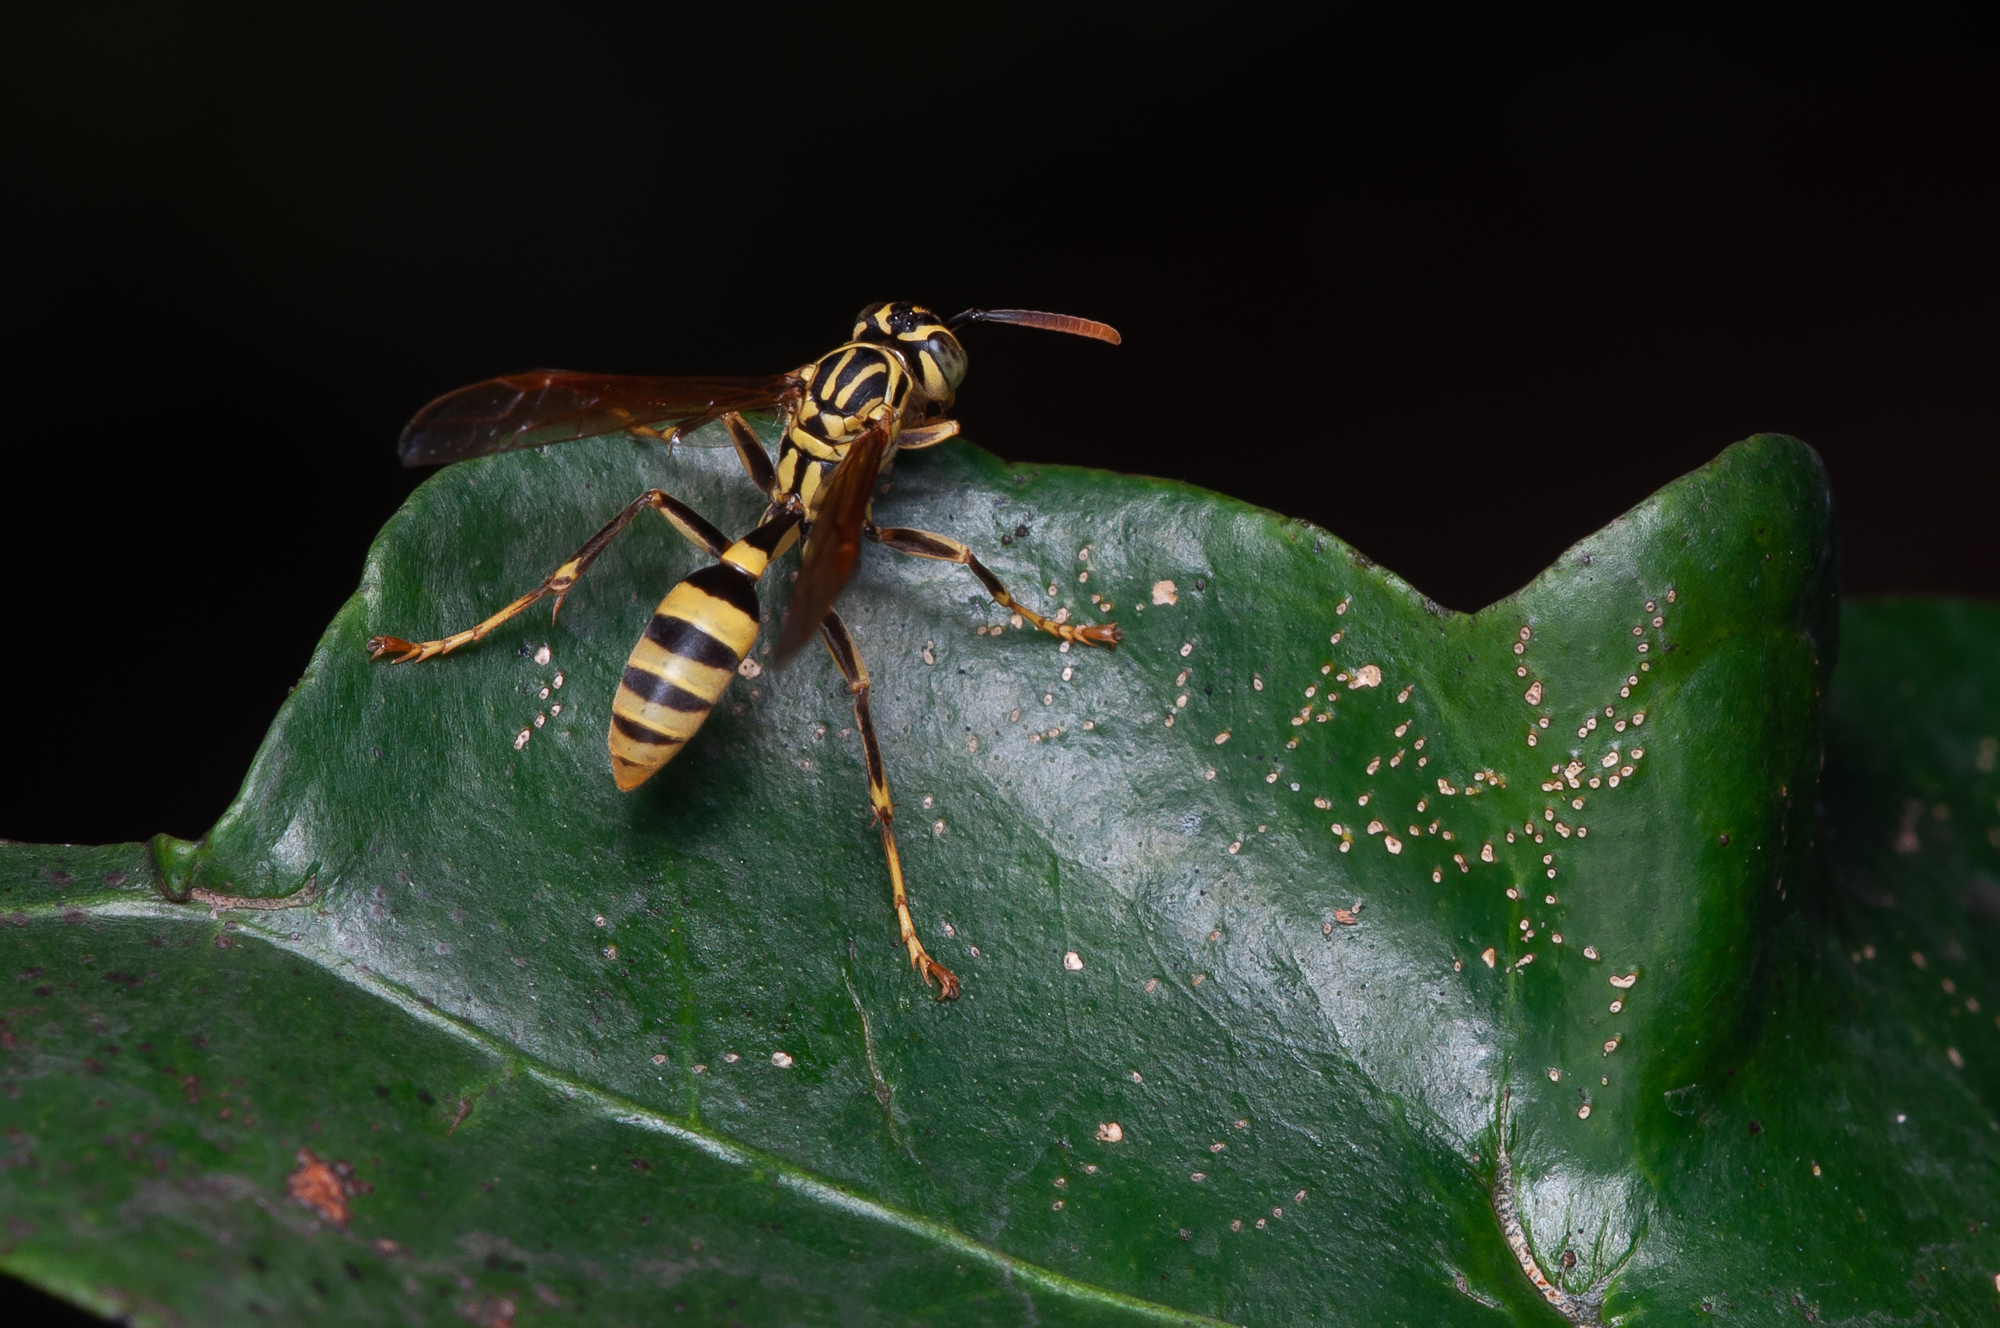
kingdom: Animalia
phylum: Arthropoda
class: Insecta
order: Hymenoptera
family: Vespidae
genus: Mischocyttarus
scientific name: Mischocyttarus basimacula
